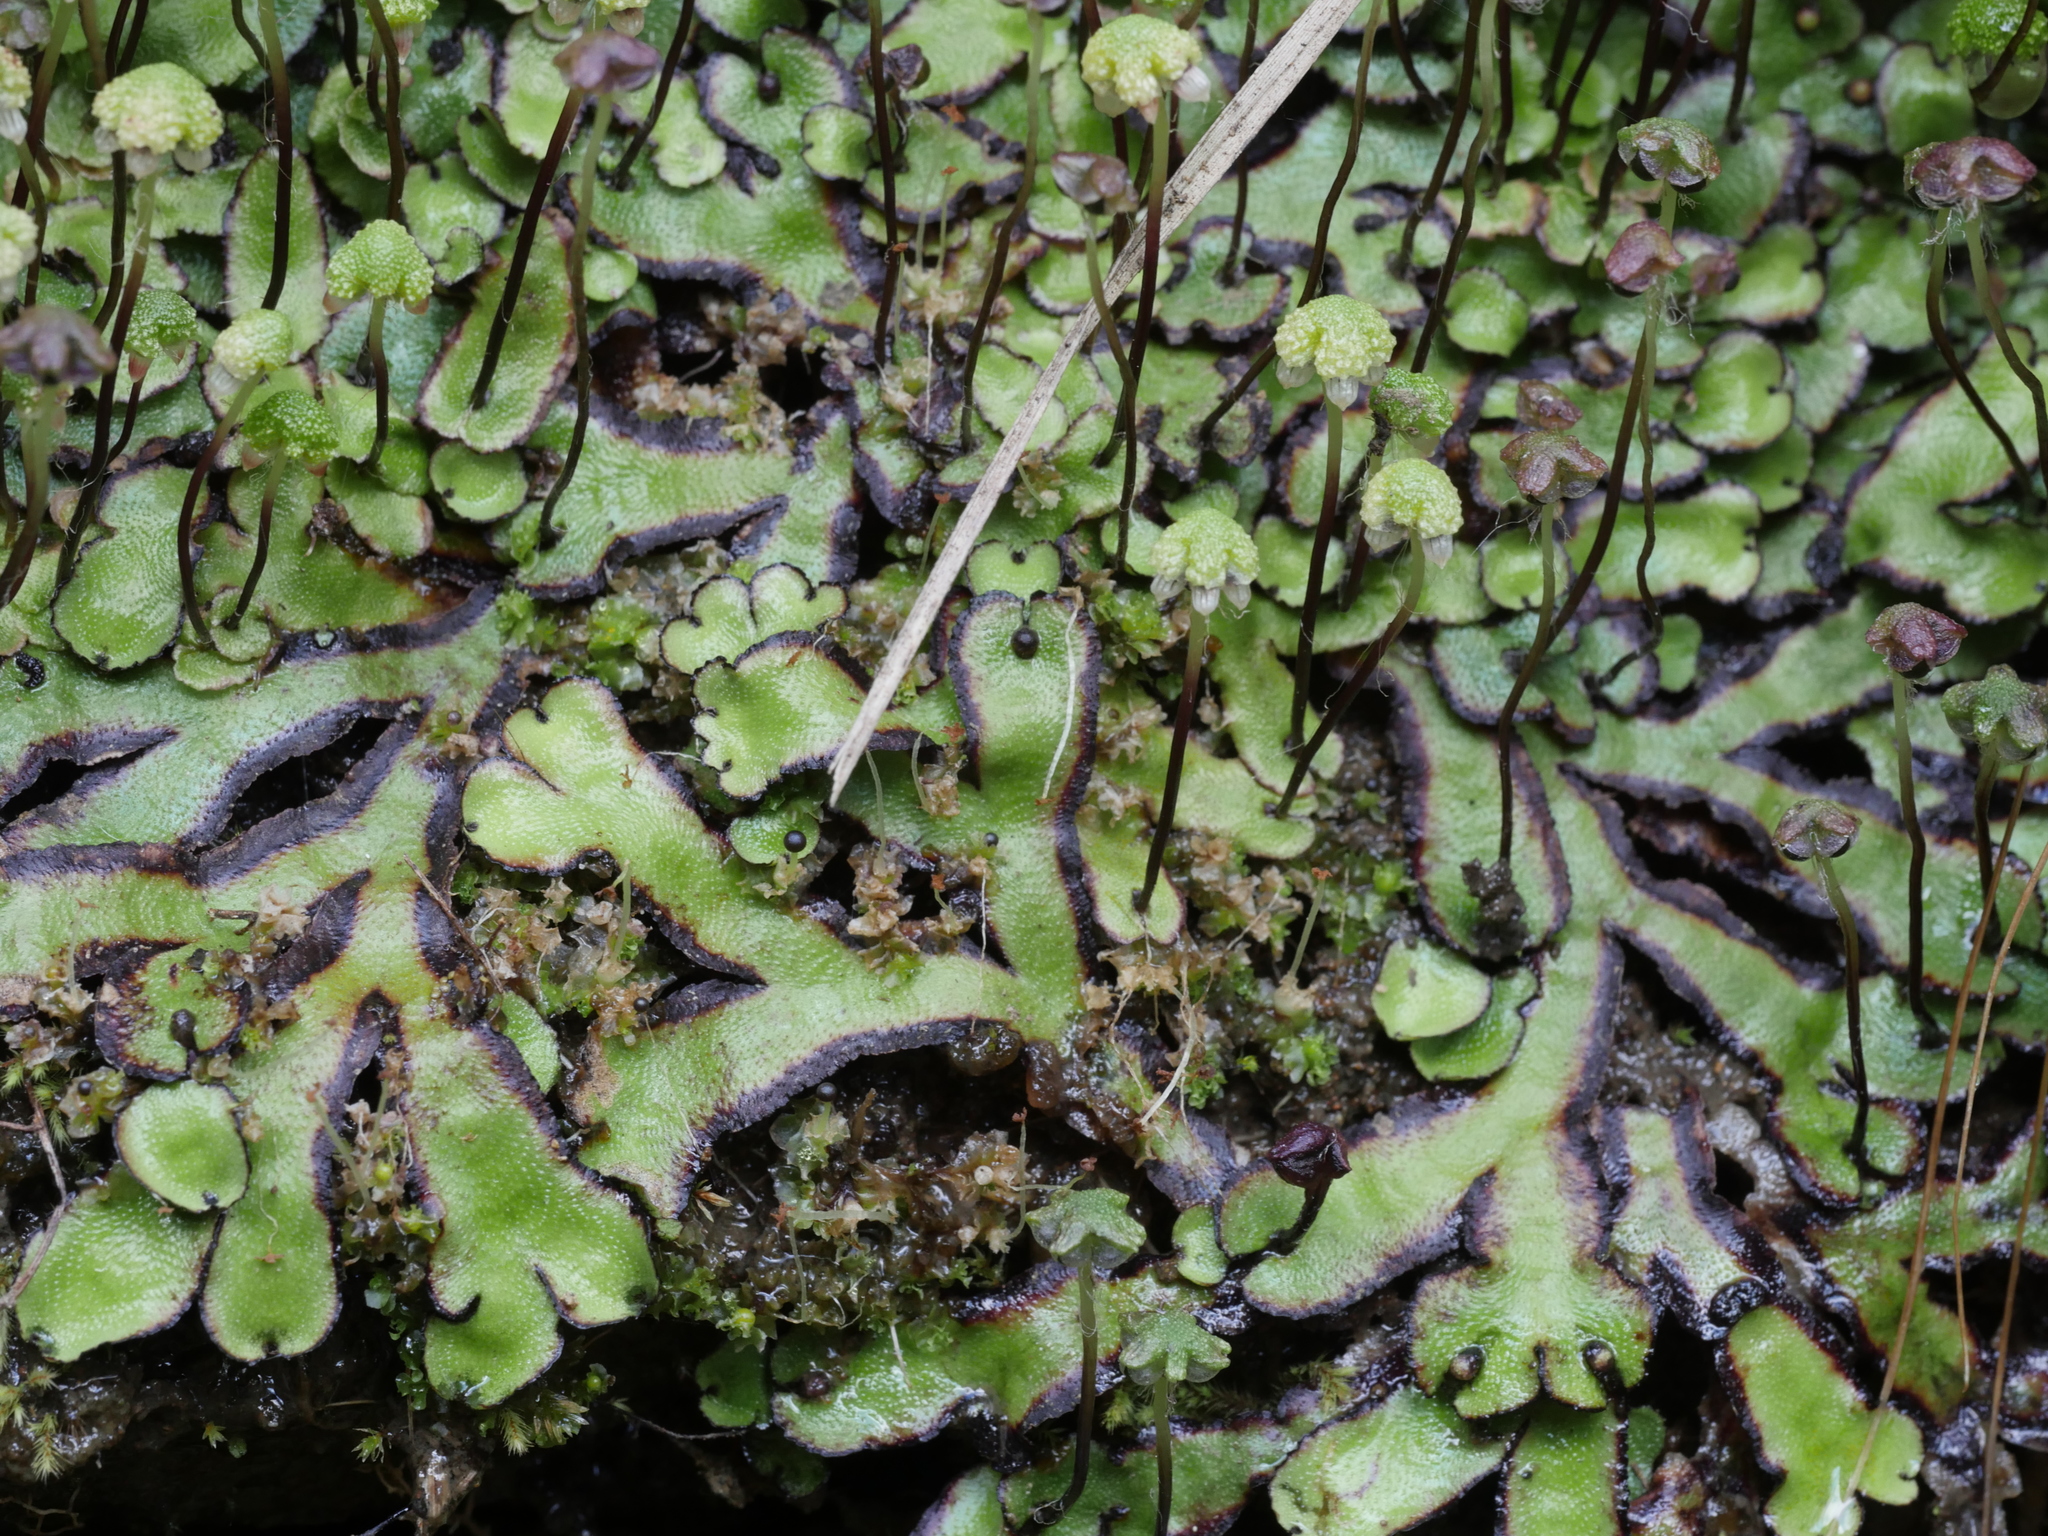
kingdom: Plantae
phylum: Marchantiophyta
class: Marchantiopsida
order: Marchantiales
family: Aytoniaceae
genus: Asterella
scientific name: Asterella australis
